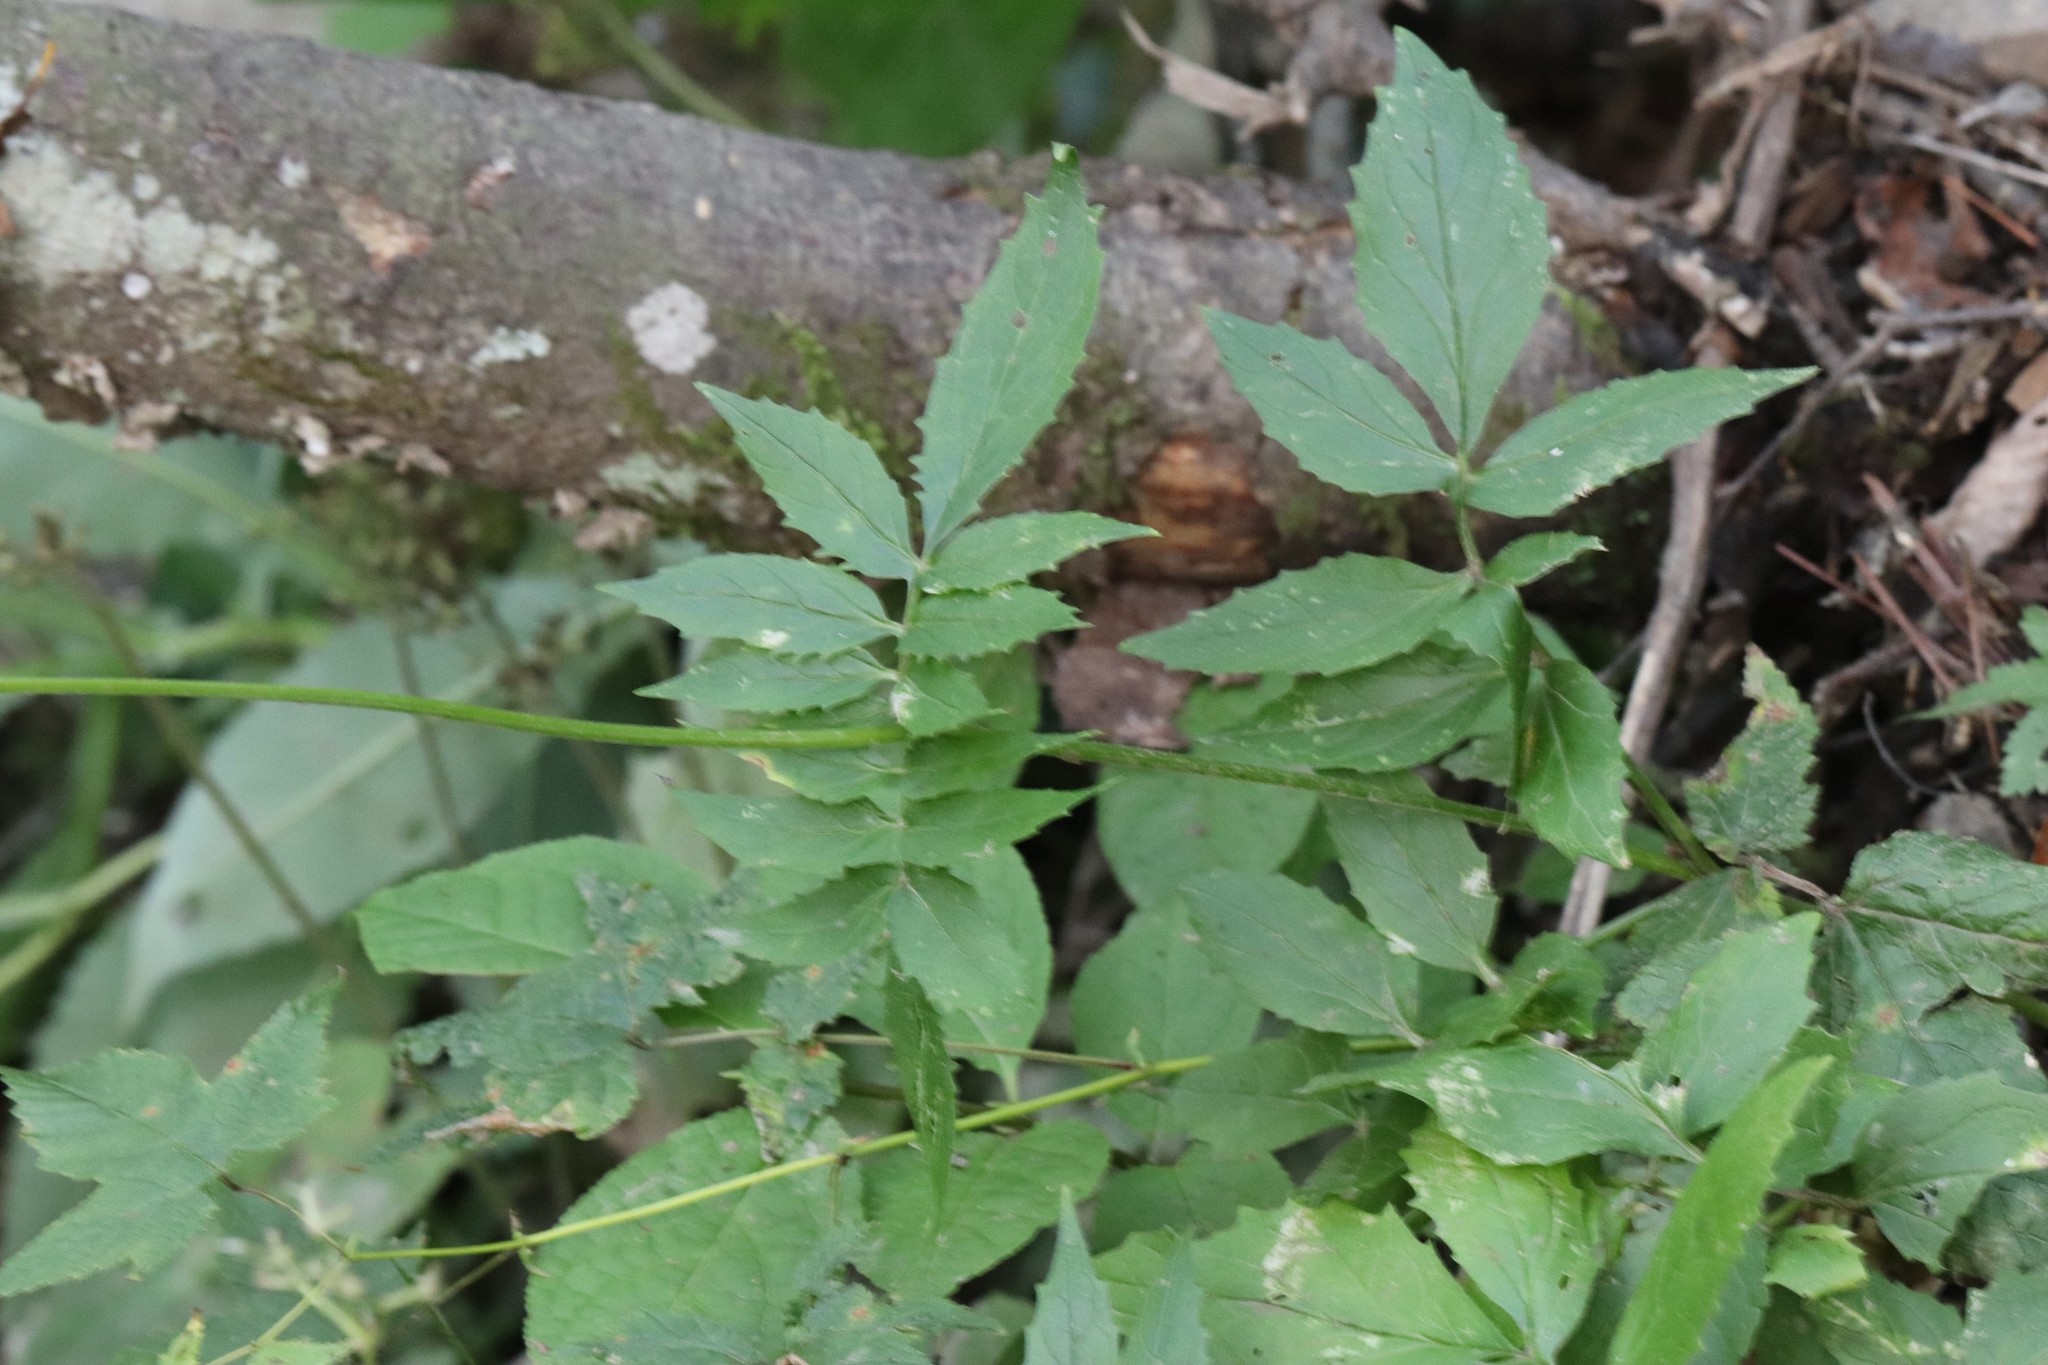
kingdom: Plantae
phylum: Tracheophyta
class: Magnoliopsida
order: Dipsacales
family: Caprifoliaceae
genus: Valeriana
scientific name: Valeriana fauriei
